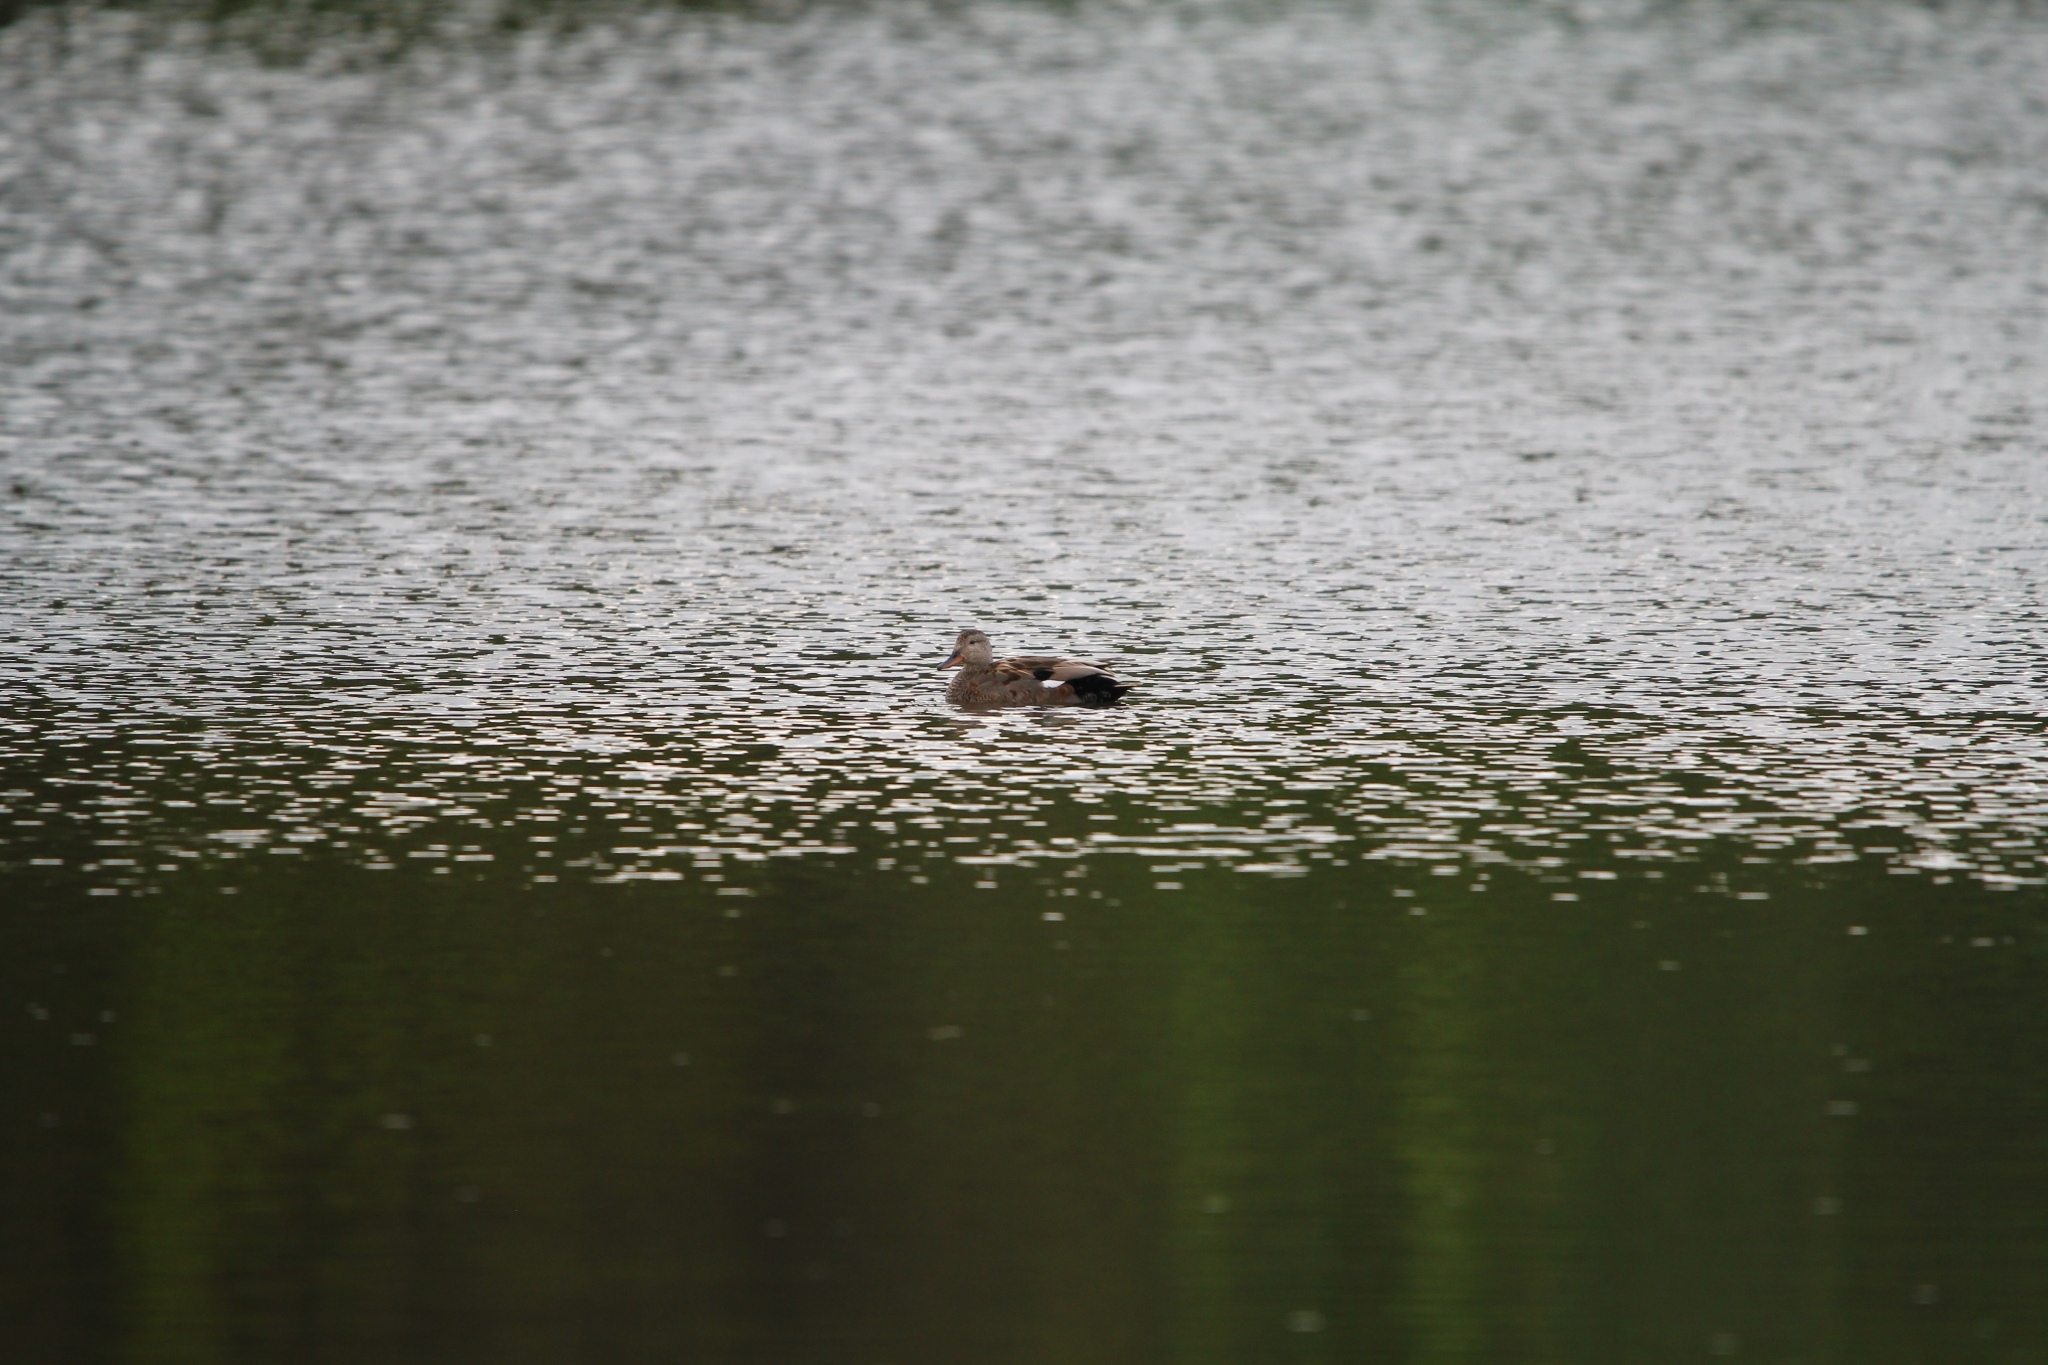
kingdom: Animalia
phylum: Chordata
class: Aves
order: Anseriformes
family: Anatidae
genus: Mareca
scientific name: Mareca strepera
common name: Gadwall
